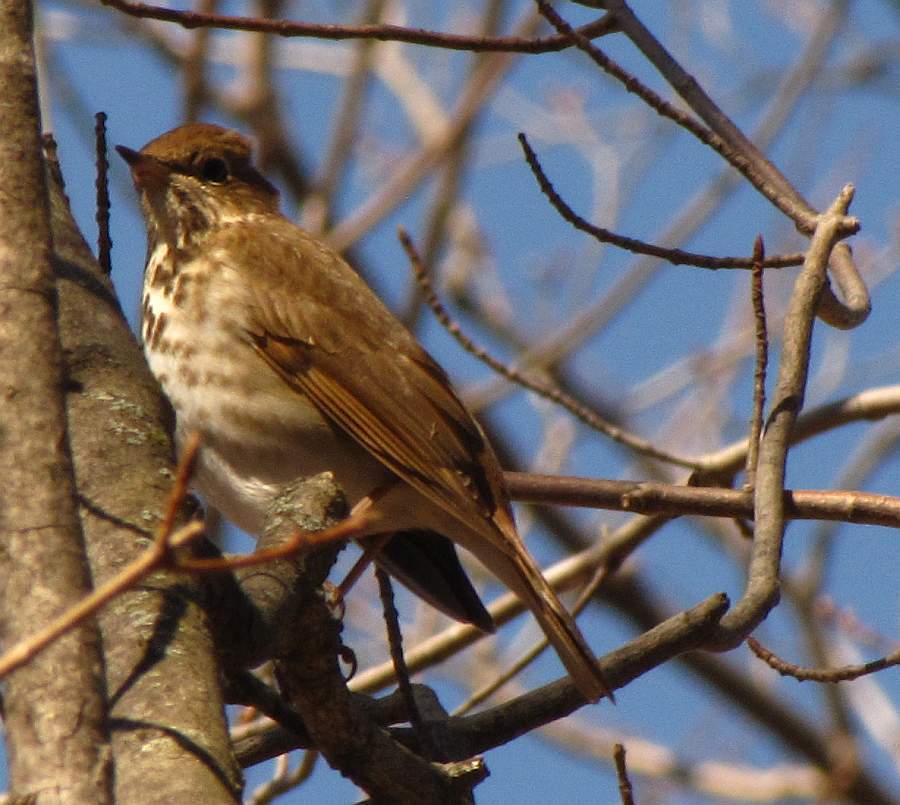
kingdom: Animalia
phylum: Chordata
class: Aves
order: Passeriformes
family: Turdidae
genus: Catharus
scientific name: Catharus guttatus
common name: Hermit thrush
